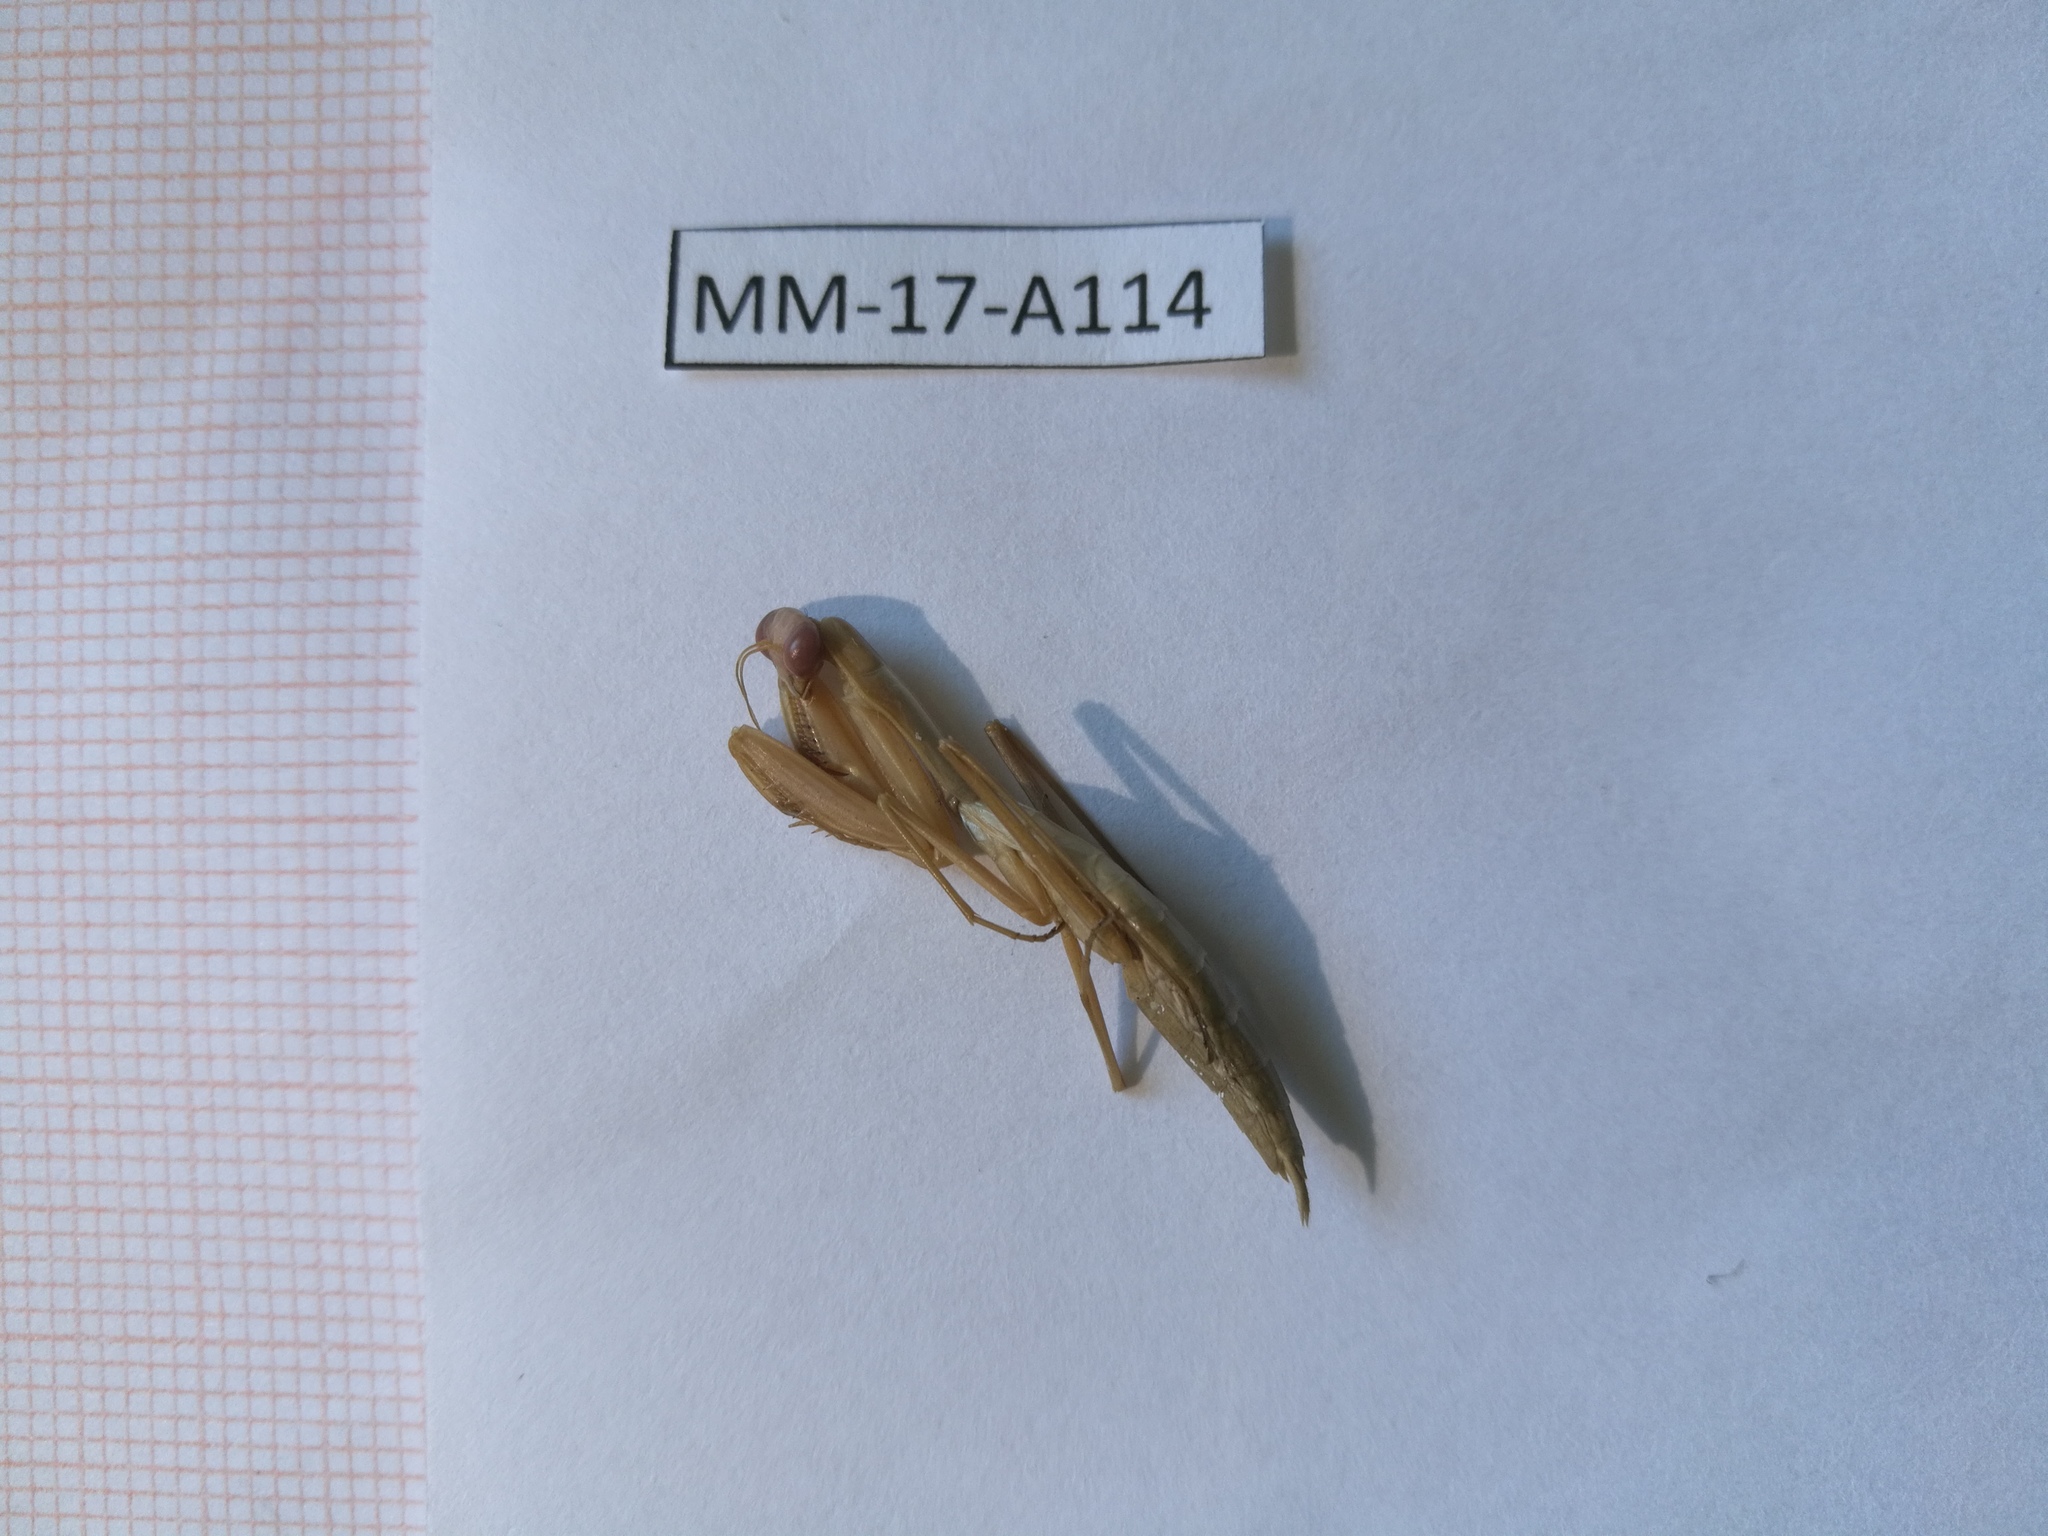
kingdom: Animalia
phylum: Arthropoda
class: Insecta
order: Mantodea
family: Mantidae
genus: Mantis
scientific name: Mantis religiosa
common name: Praying mantis
